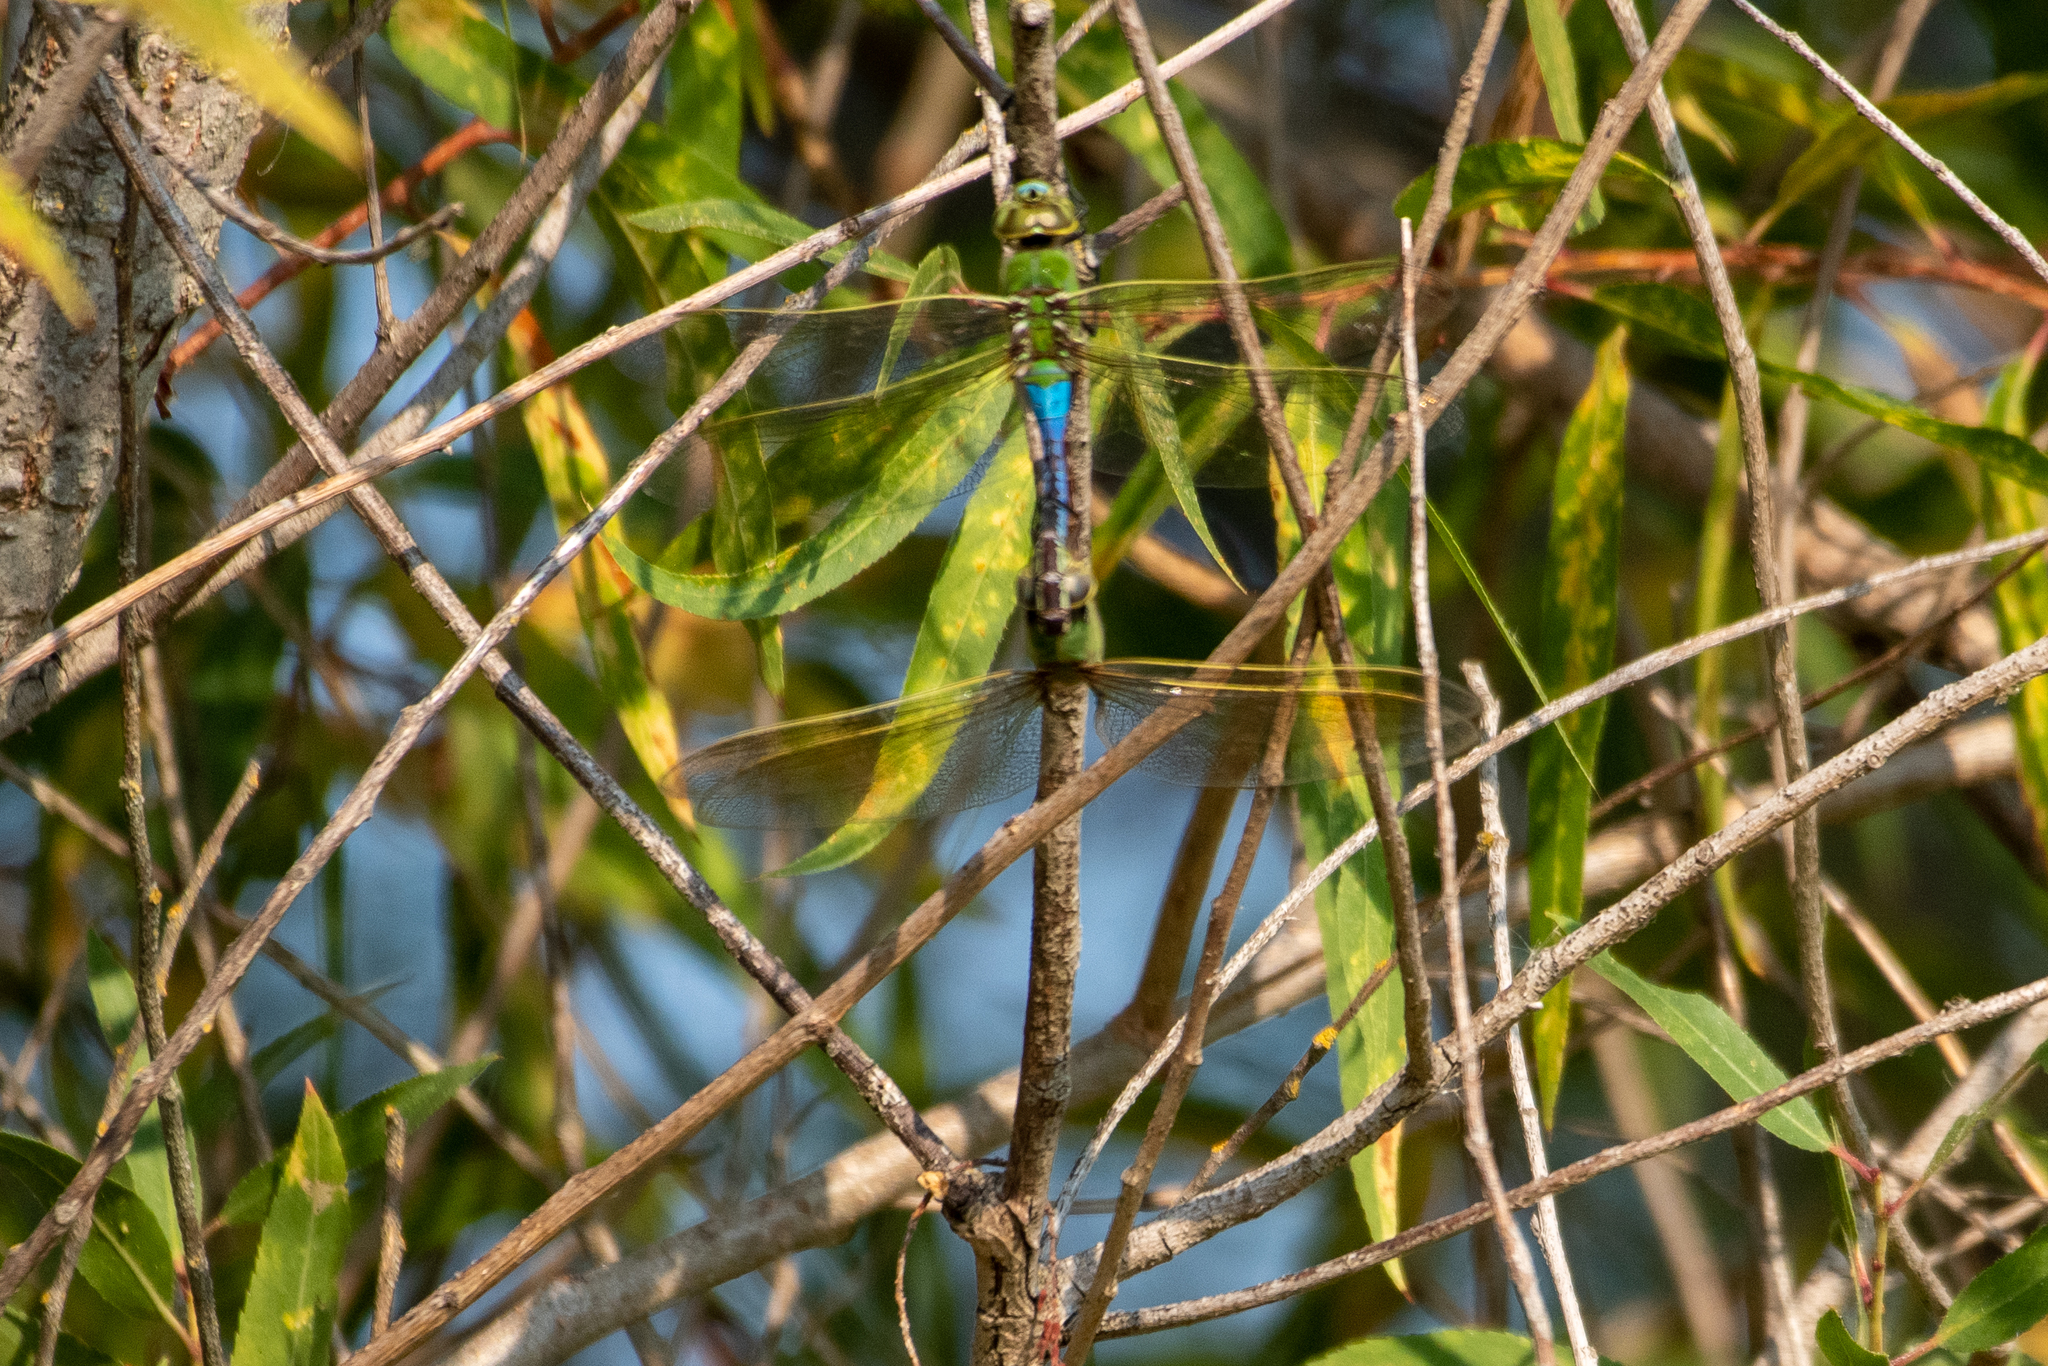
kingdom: Animalia
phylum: Arthropoda
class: Insecta
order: Odonata
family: Aeshnidae
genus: Anax
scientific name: Anax junius
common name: Common green darner
